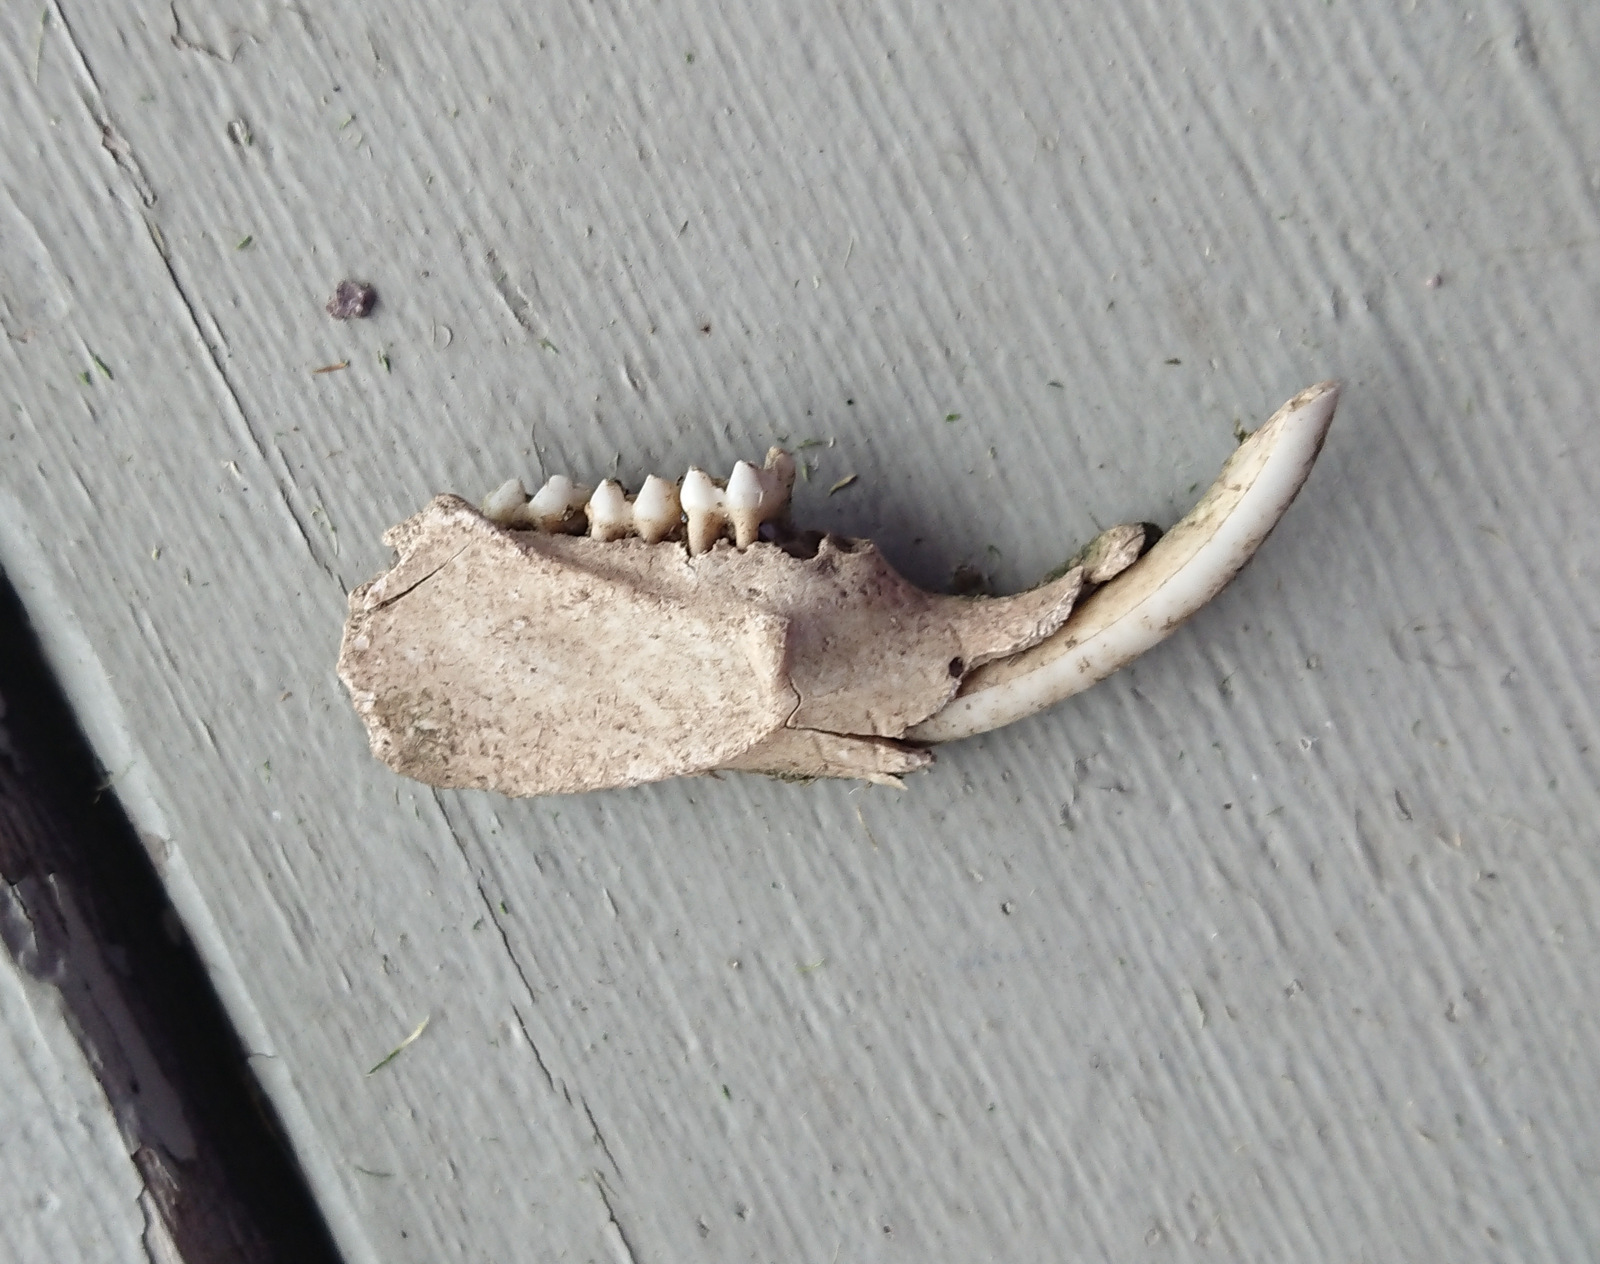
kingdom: Animalia
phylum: Chordata
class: Mammalia
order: Rodentia
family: Sciuridae
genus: Marmota
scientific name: Marmota monax
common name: Groundhog
